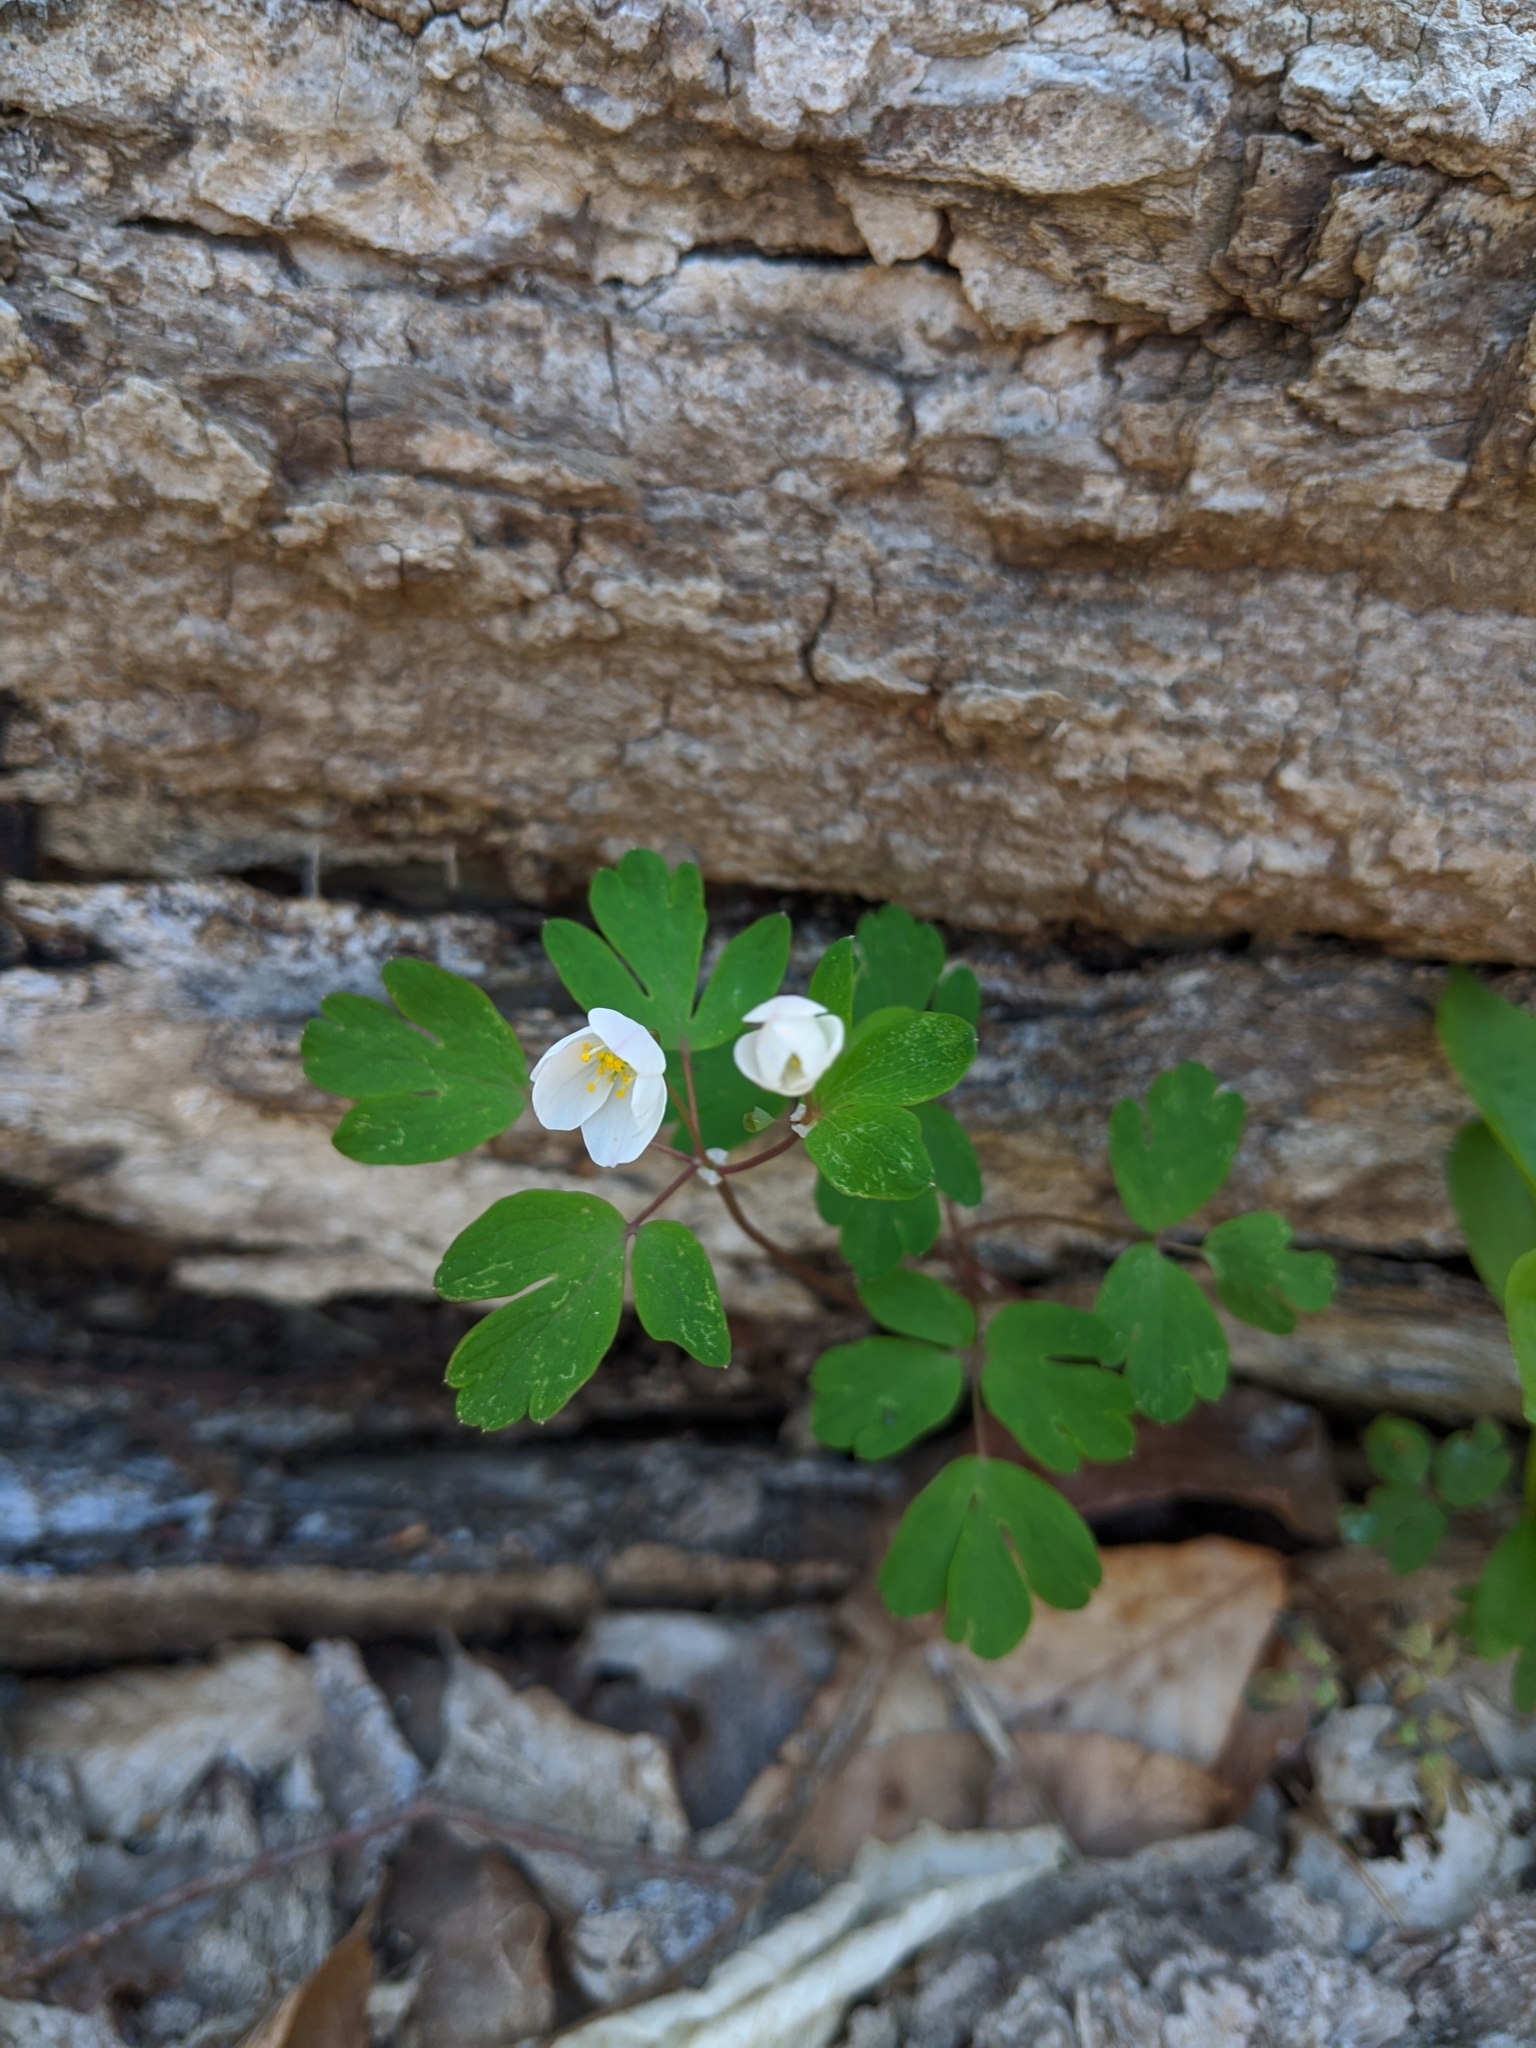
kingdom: Plantae
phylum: Tracheophyta
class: Magnoliopsida
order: Ranunculales
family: Ranunculaceae
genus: Enemion
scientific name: Enemion biternatum
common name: Eastern false rue-anemone
